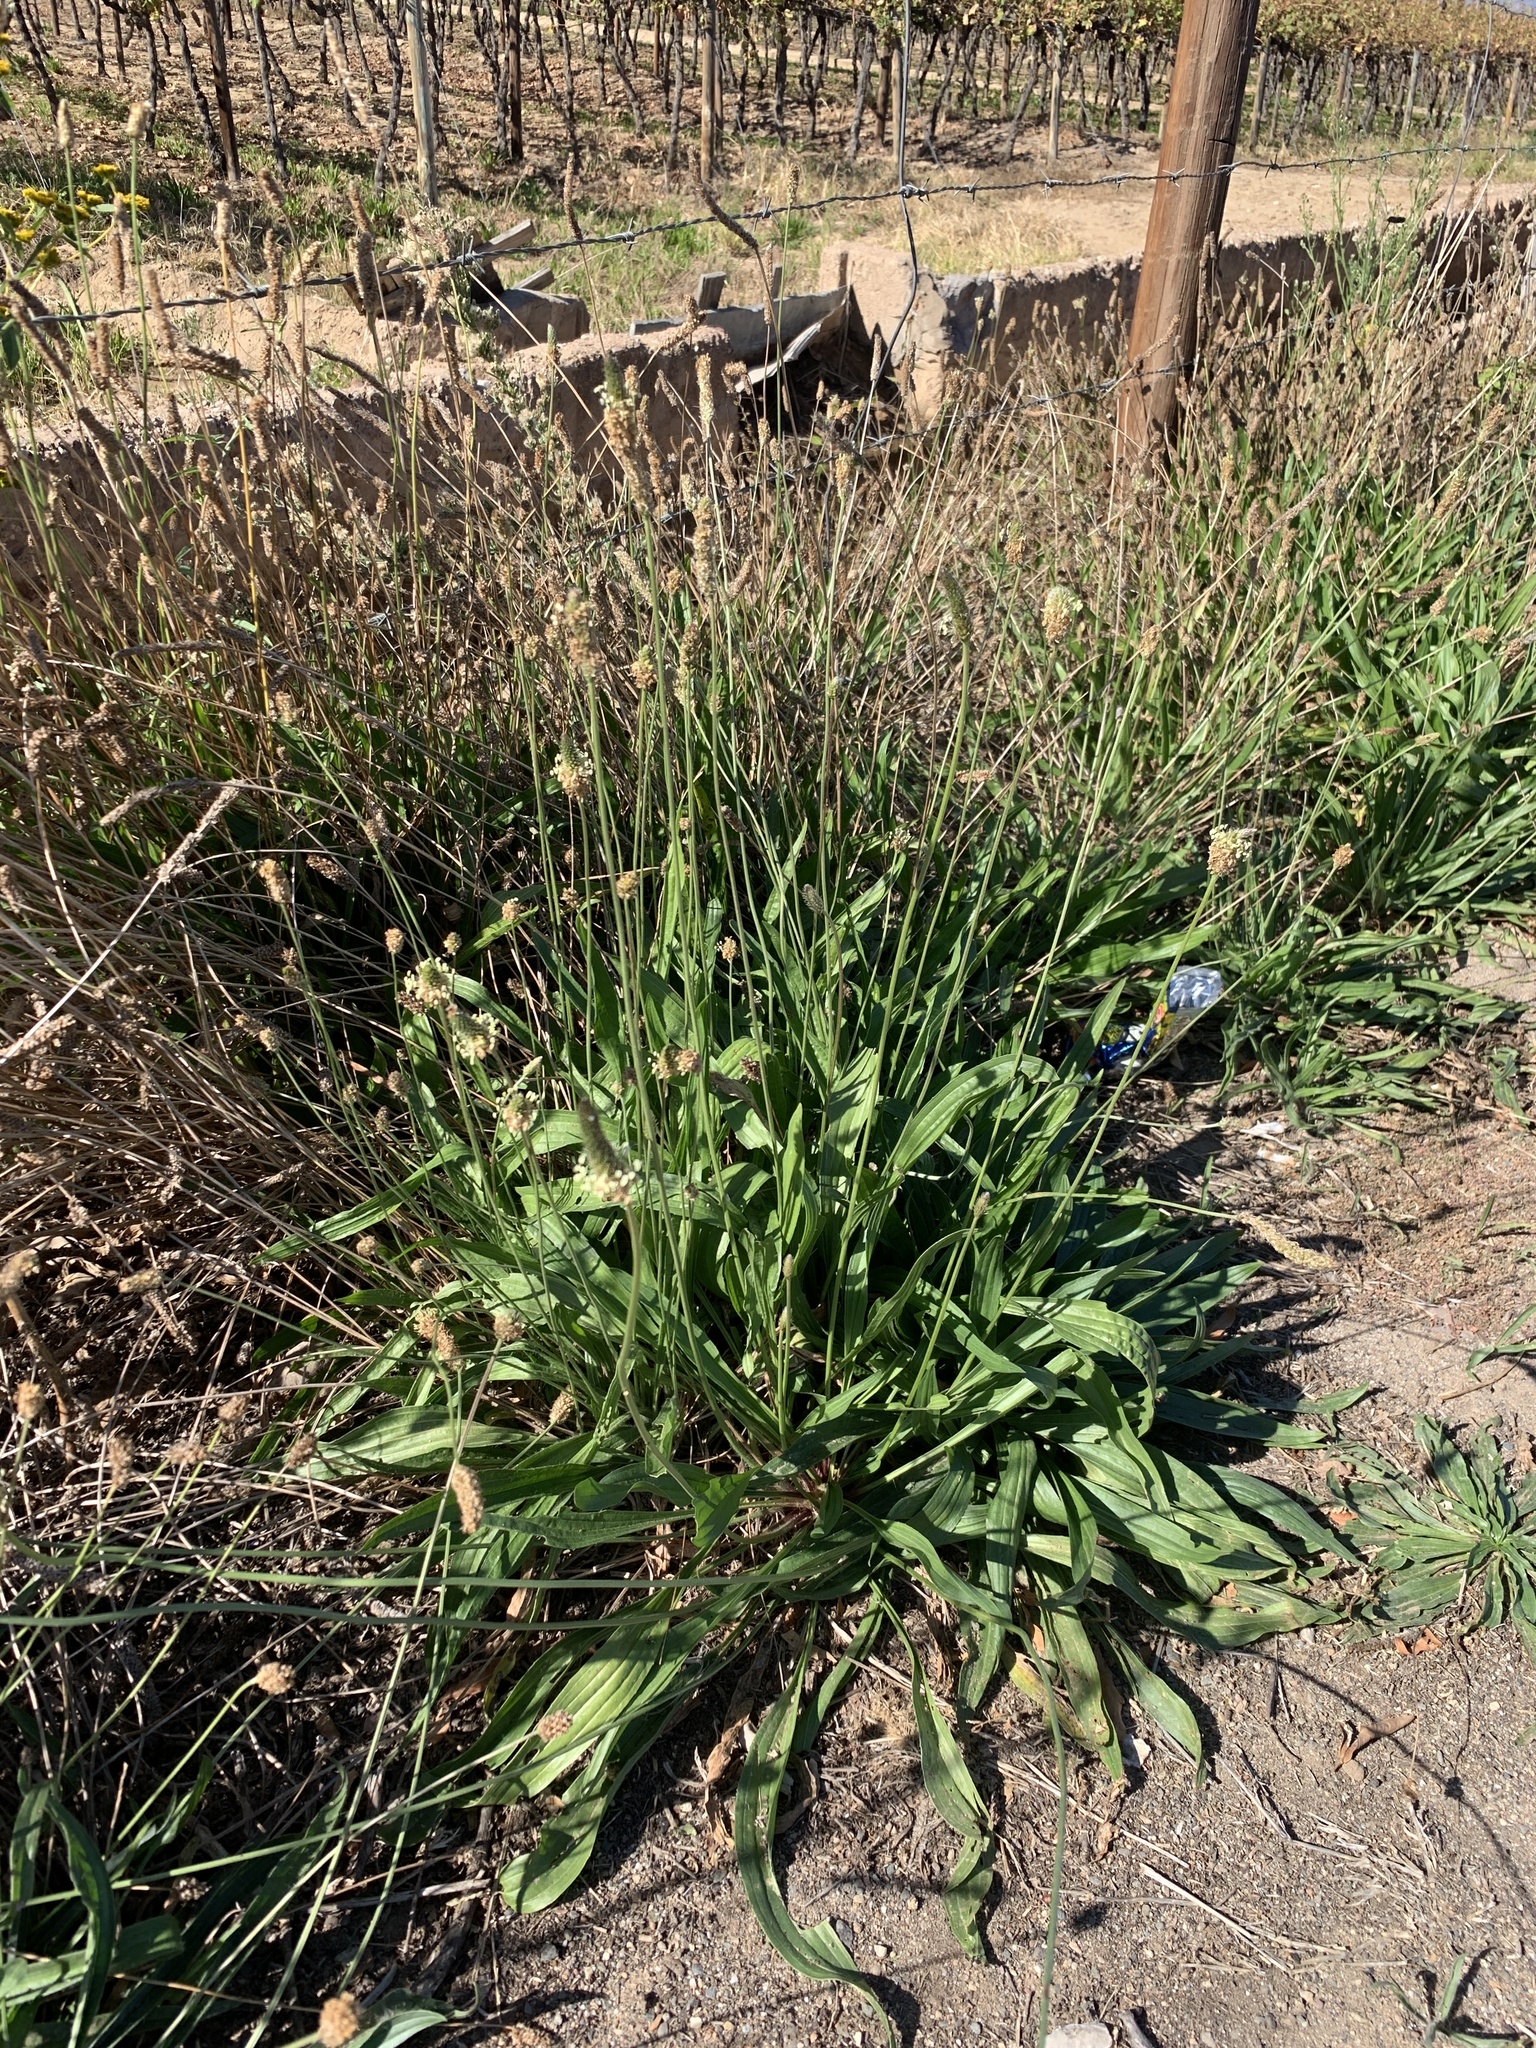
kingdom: Plantae
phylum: Tracheophyta
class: Magnoliopsida
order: Lamiales
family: Plantaginaceae
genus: Plantago
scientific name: Plantago lanceolata
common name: Ribwort plantain
